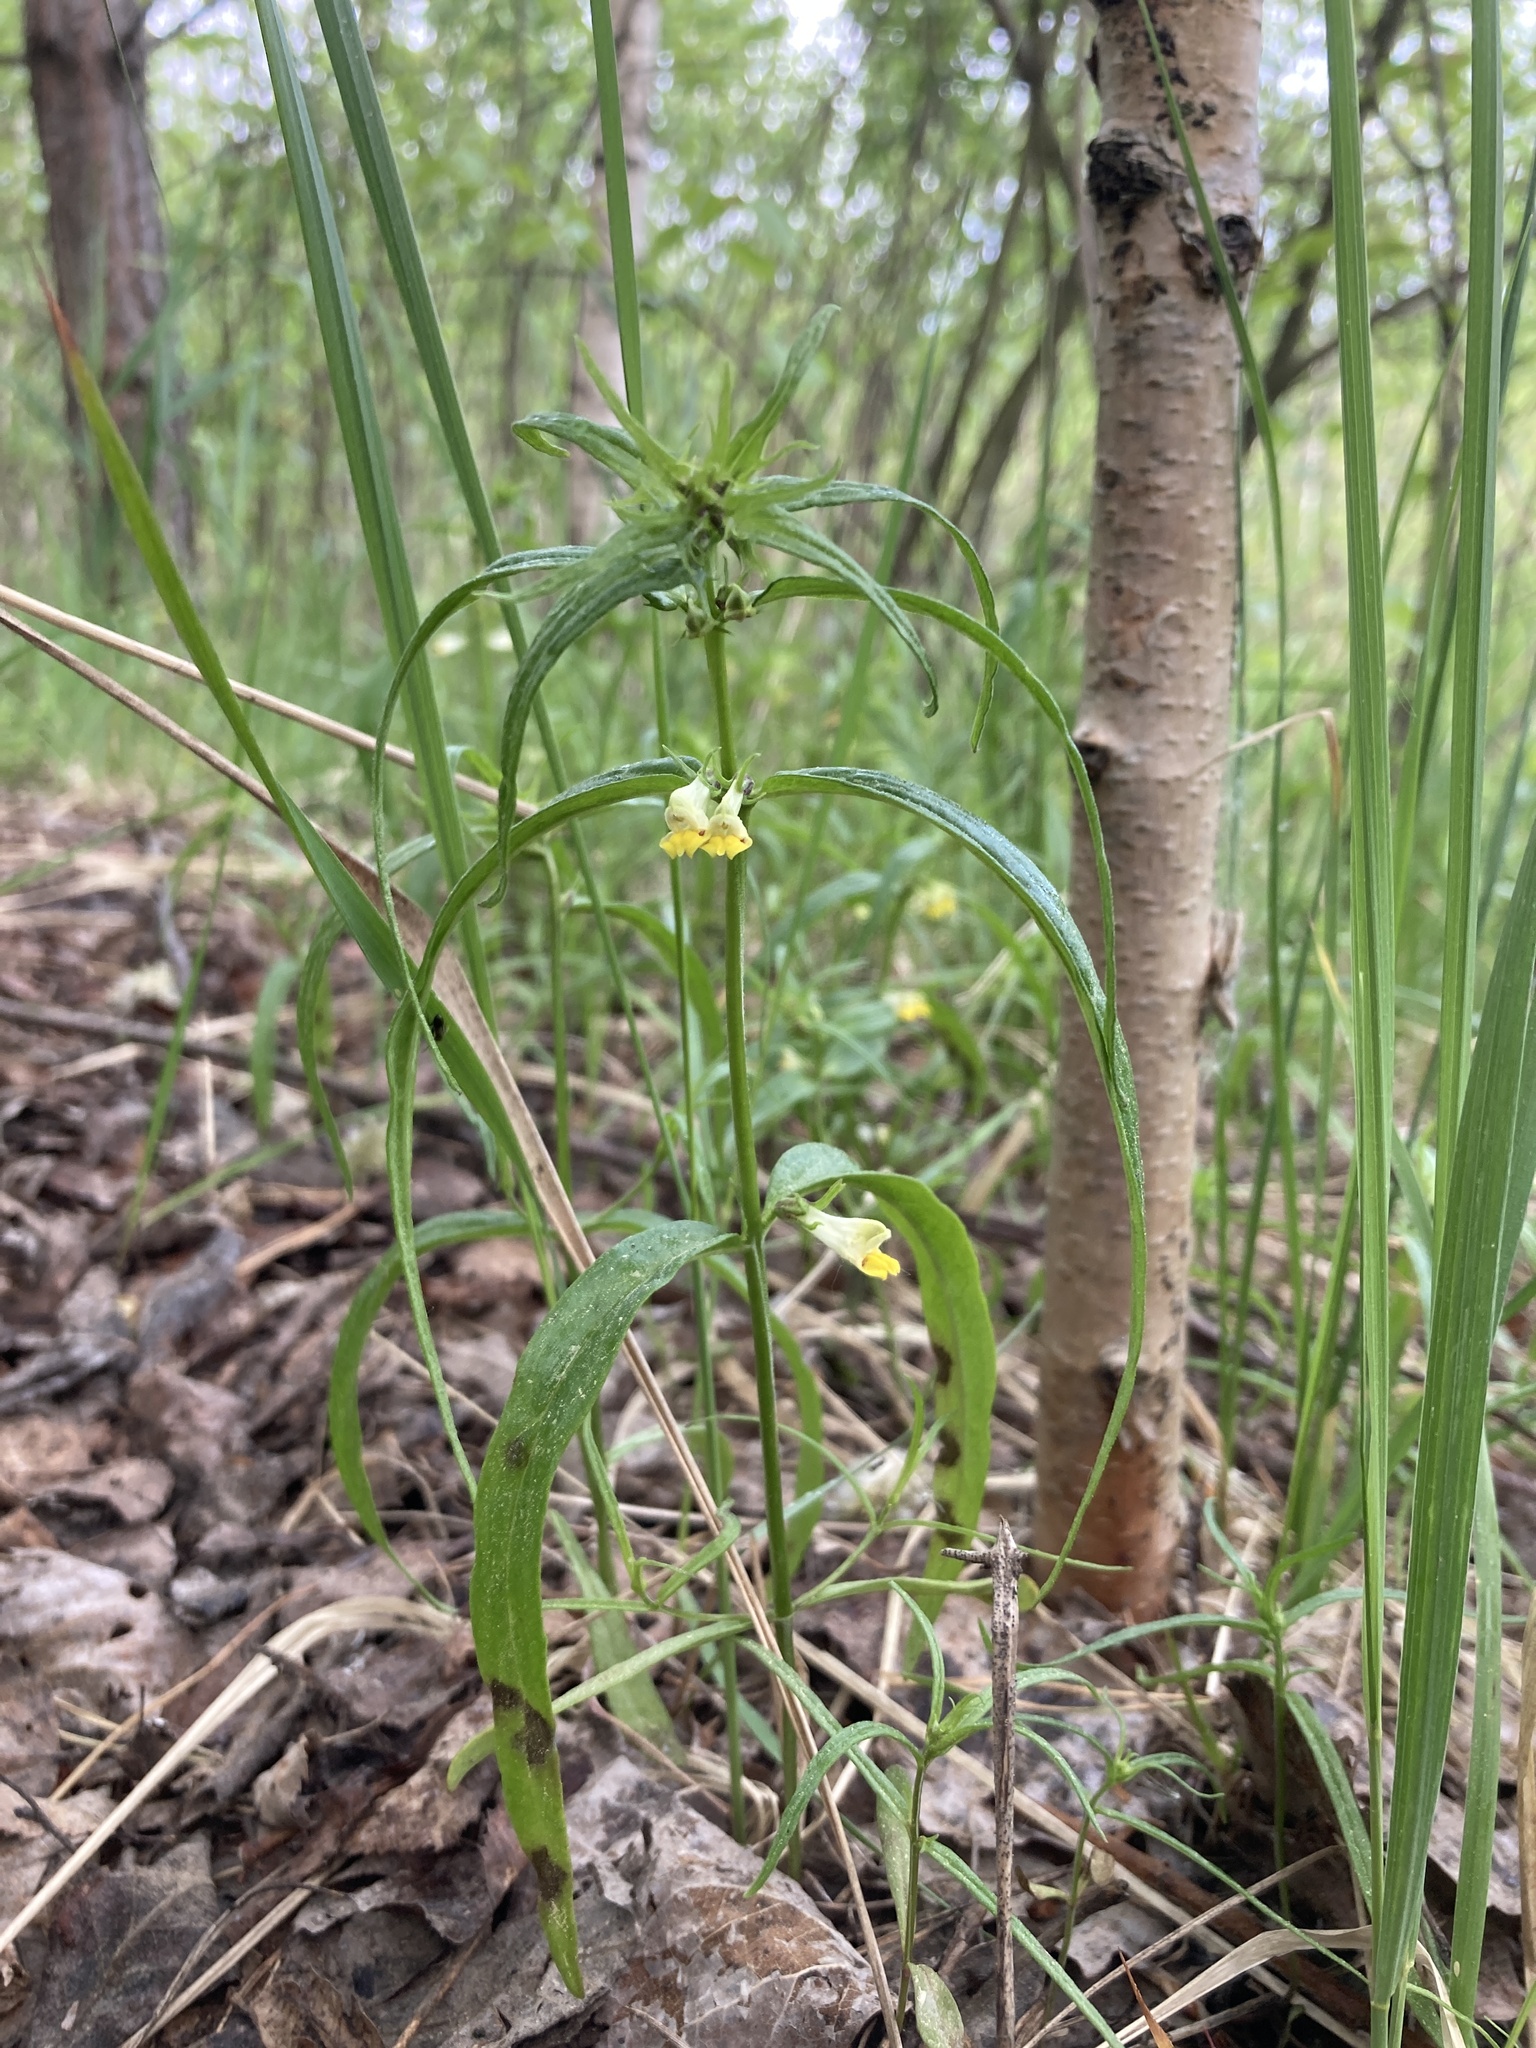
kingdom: Plantae
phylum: Tracheophyta
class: Magnoliopsida
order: Lamiales
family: Orobanchaceae
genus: Melampyrum
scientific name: Melampyrum pratense
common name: Common cow-wheat
